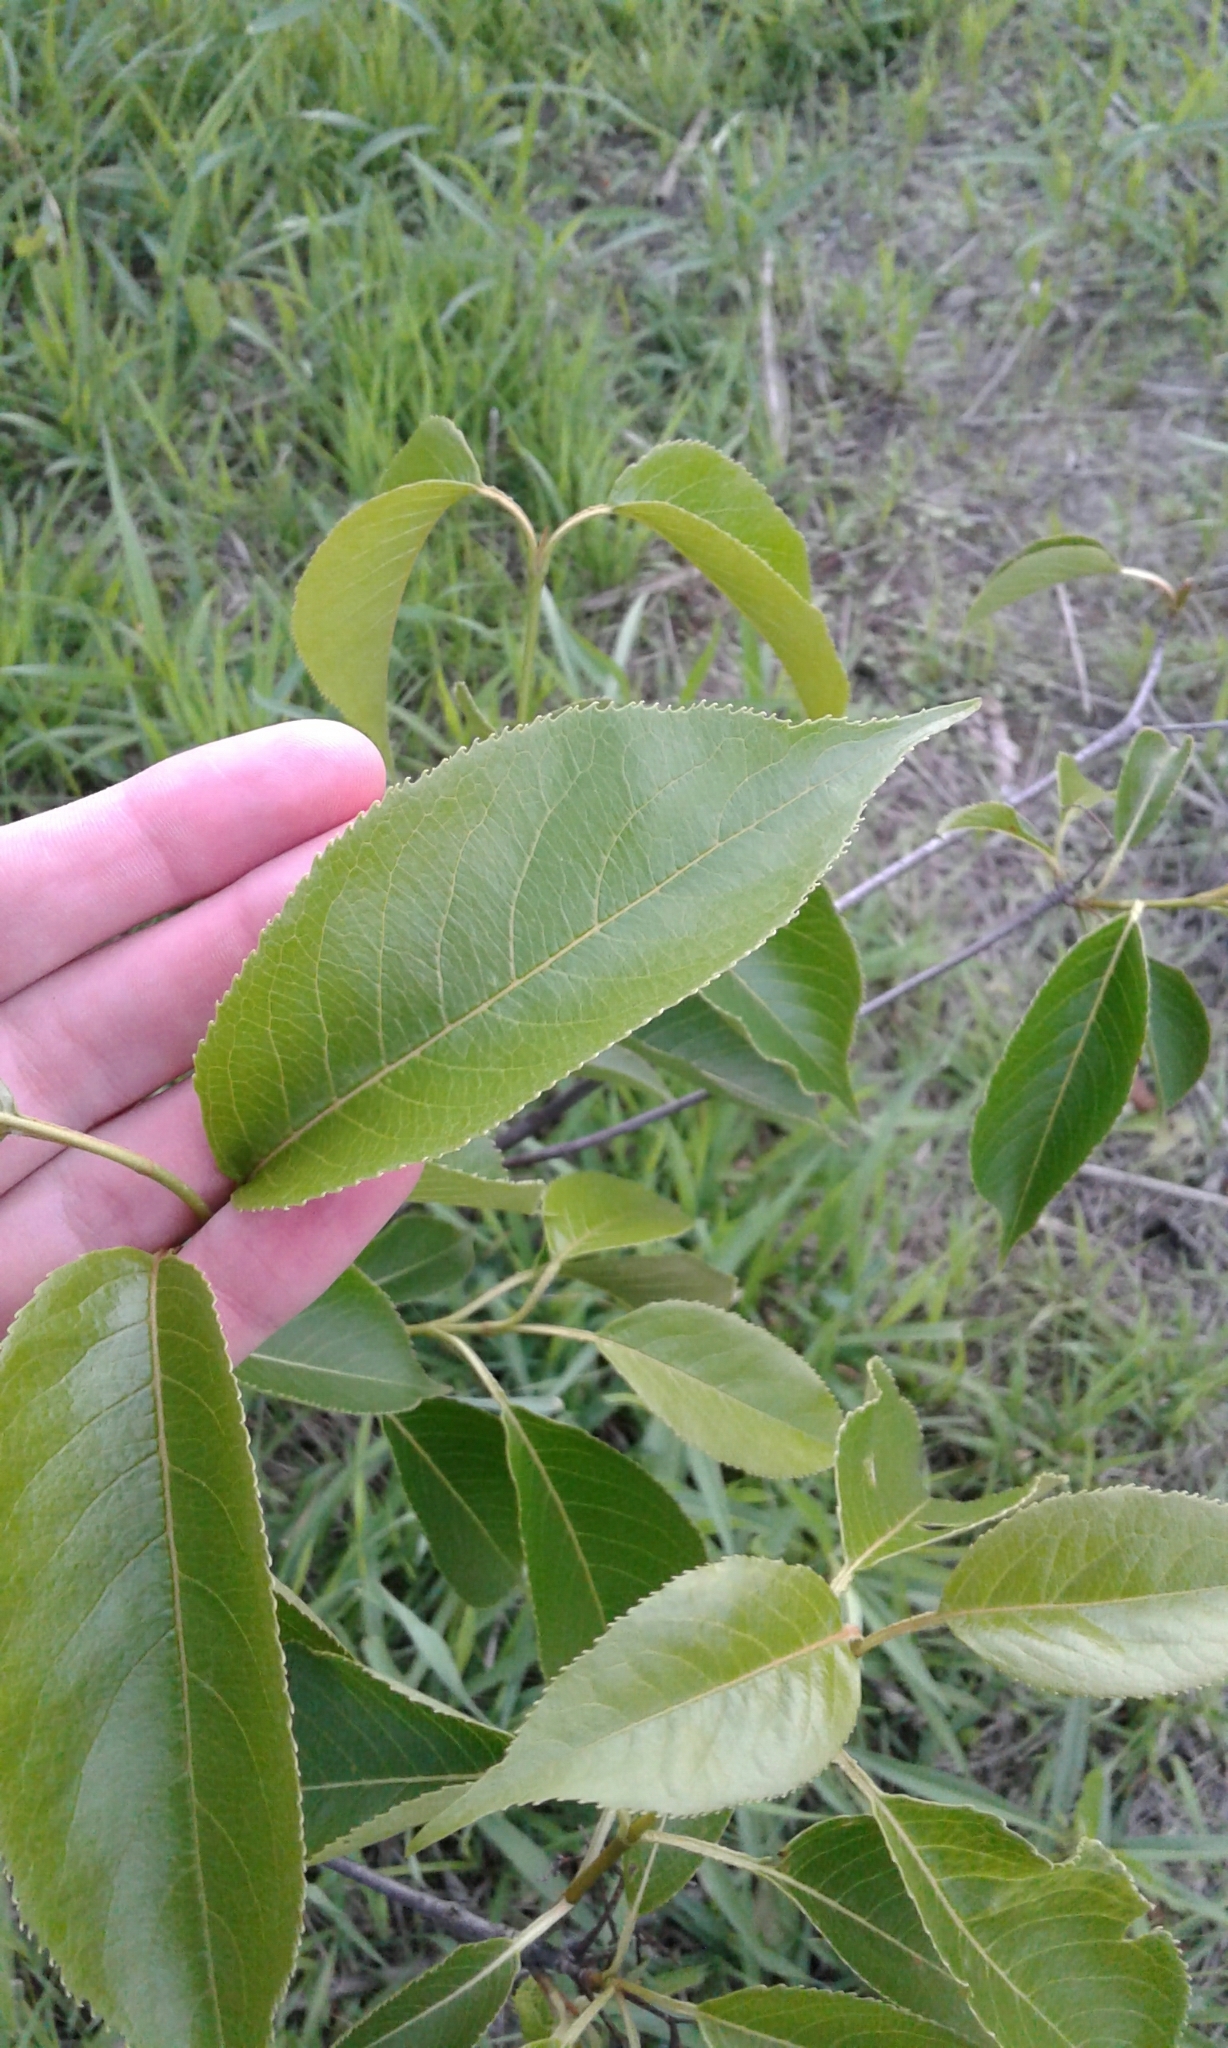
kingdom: Plantae
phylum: Tracheophyta
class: Magnoliopsida
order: Dipsacales
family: Viburnaceae
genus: Viburnum
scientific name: Viburnum lentago
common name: Black haw
